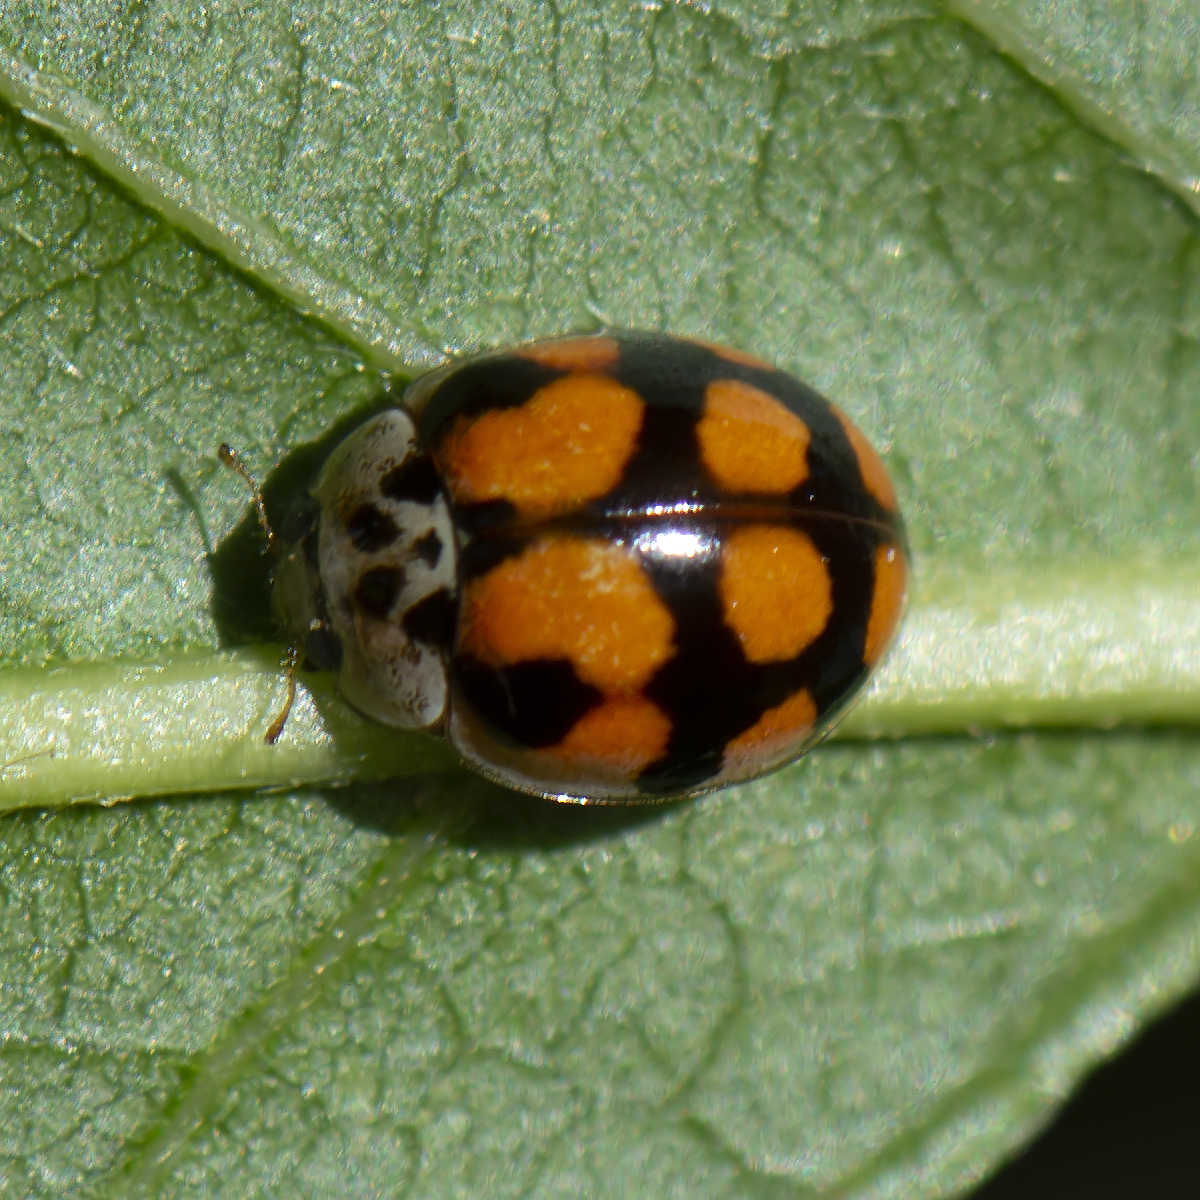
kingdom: Animalia
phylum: Arthropoda
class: Insecta
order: Coleoptera
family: Coccinellidae
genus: Adalia
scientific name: Adalia decempunctata
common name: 10-spot ladybird
